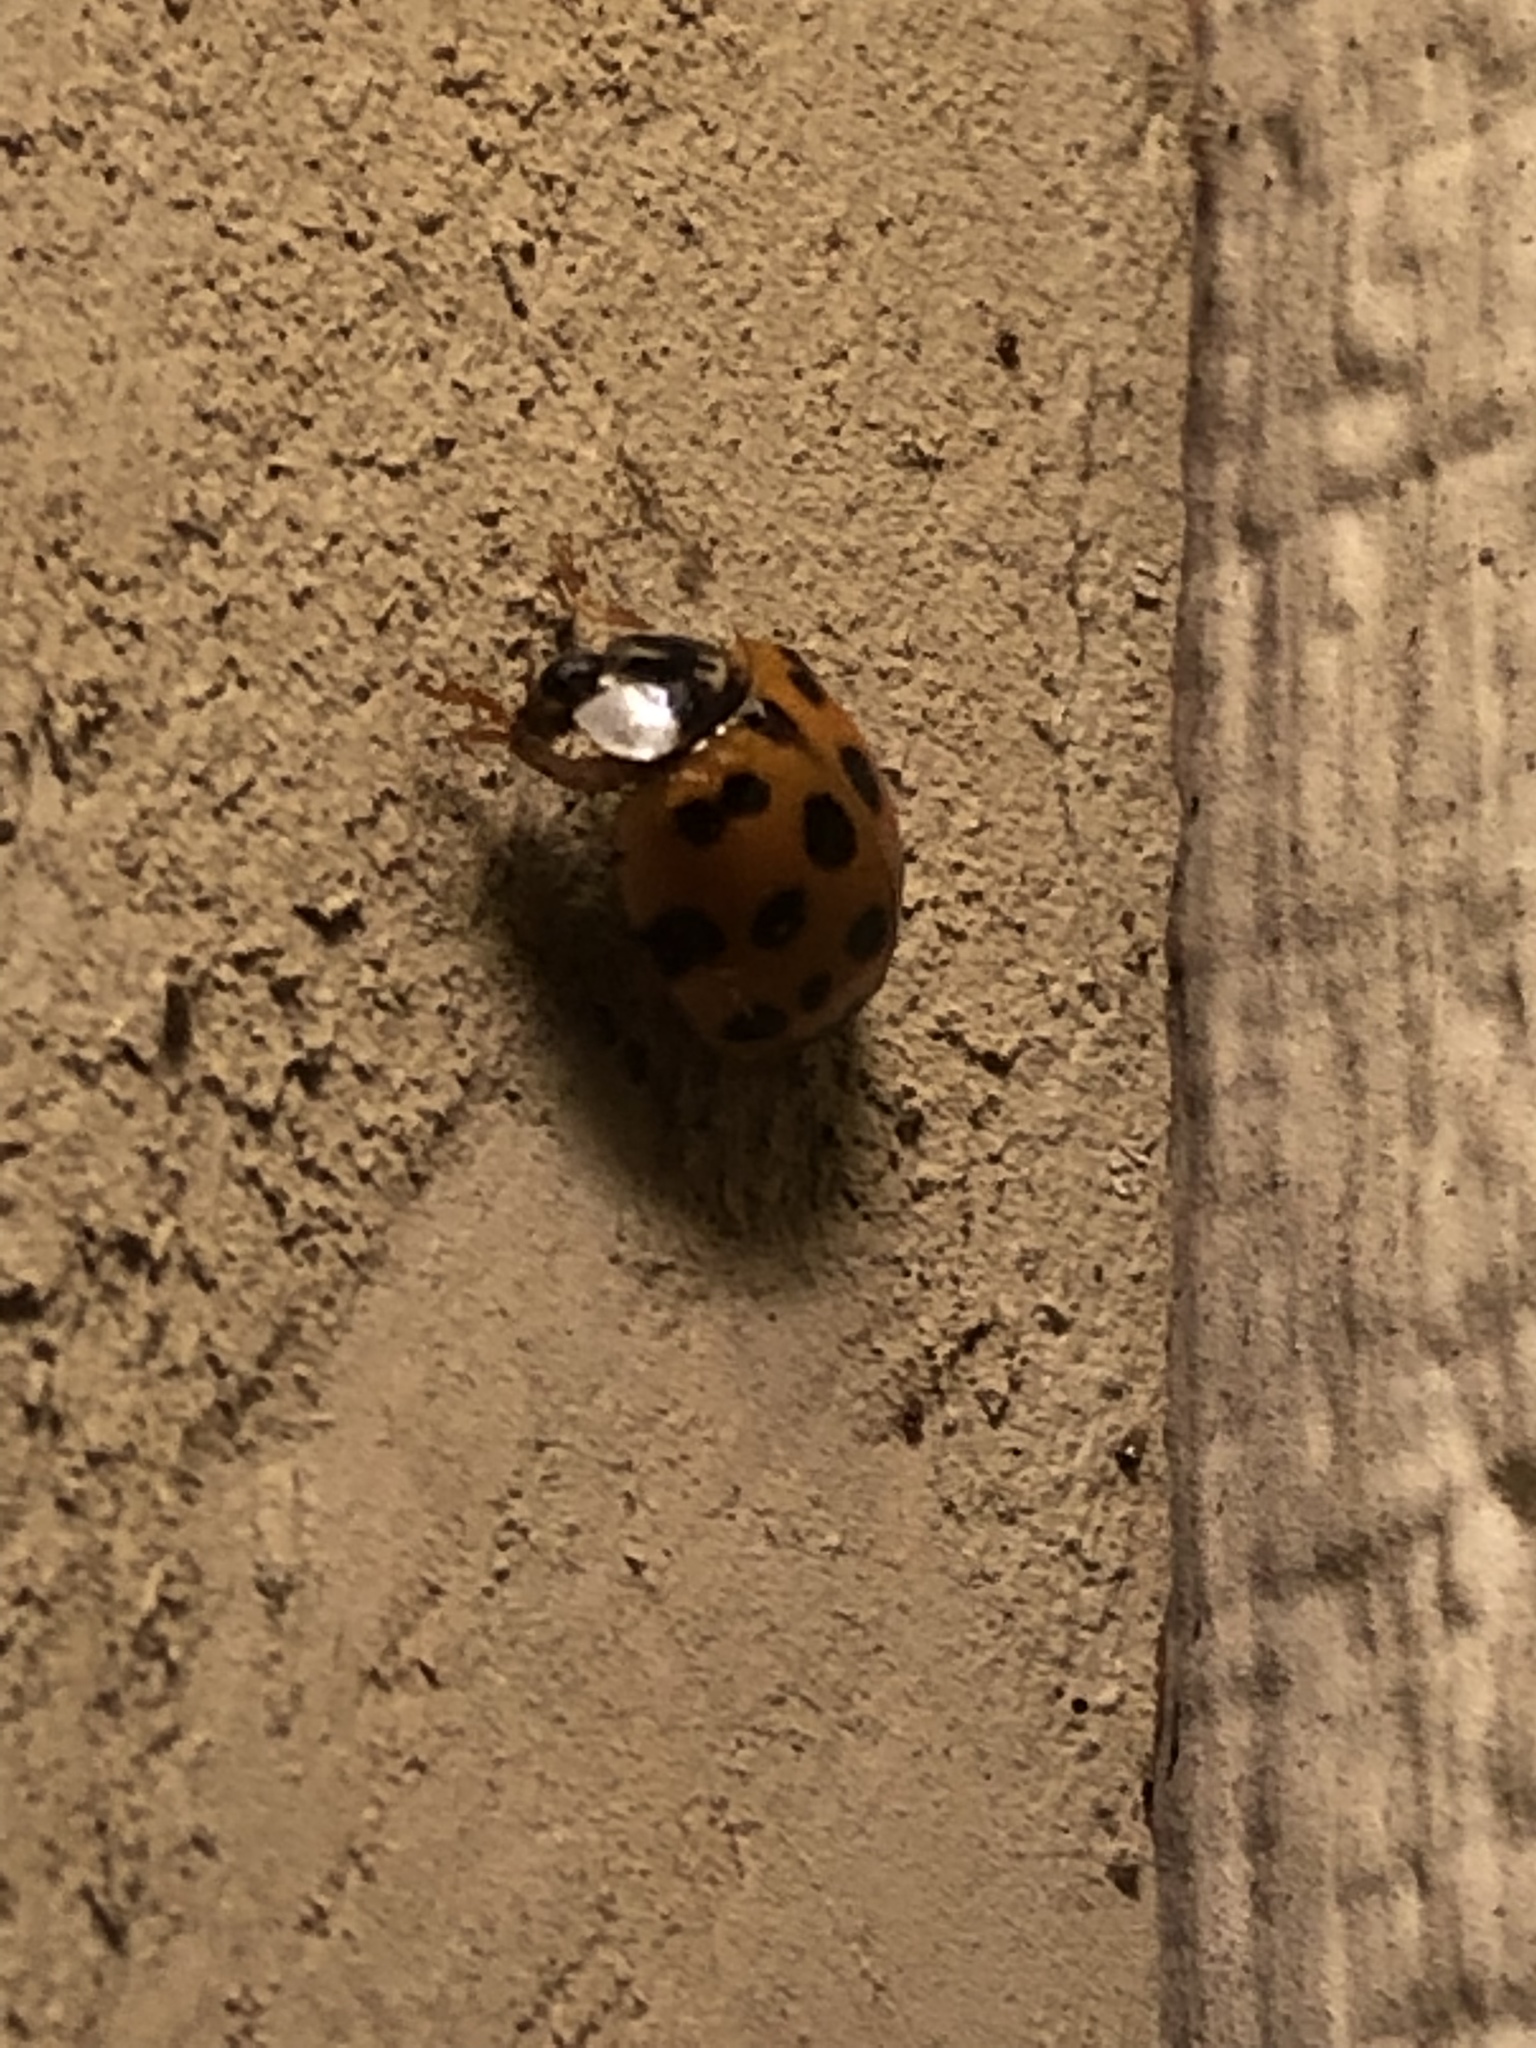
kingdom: Animalia
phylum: Arthropoda
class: Insecta
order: Coleoptera
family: Coccinellidae
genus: Harmonia
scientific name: Harmonia axyridis
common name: Harlequin ladybird
